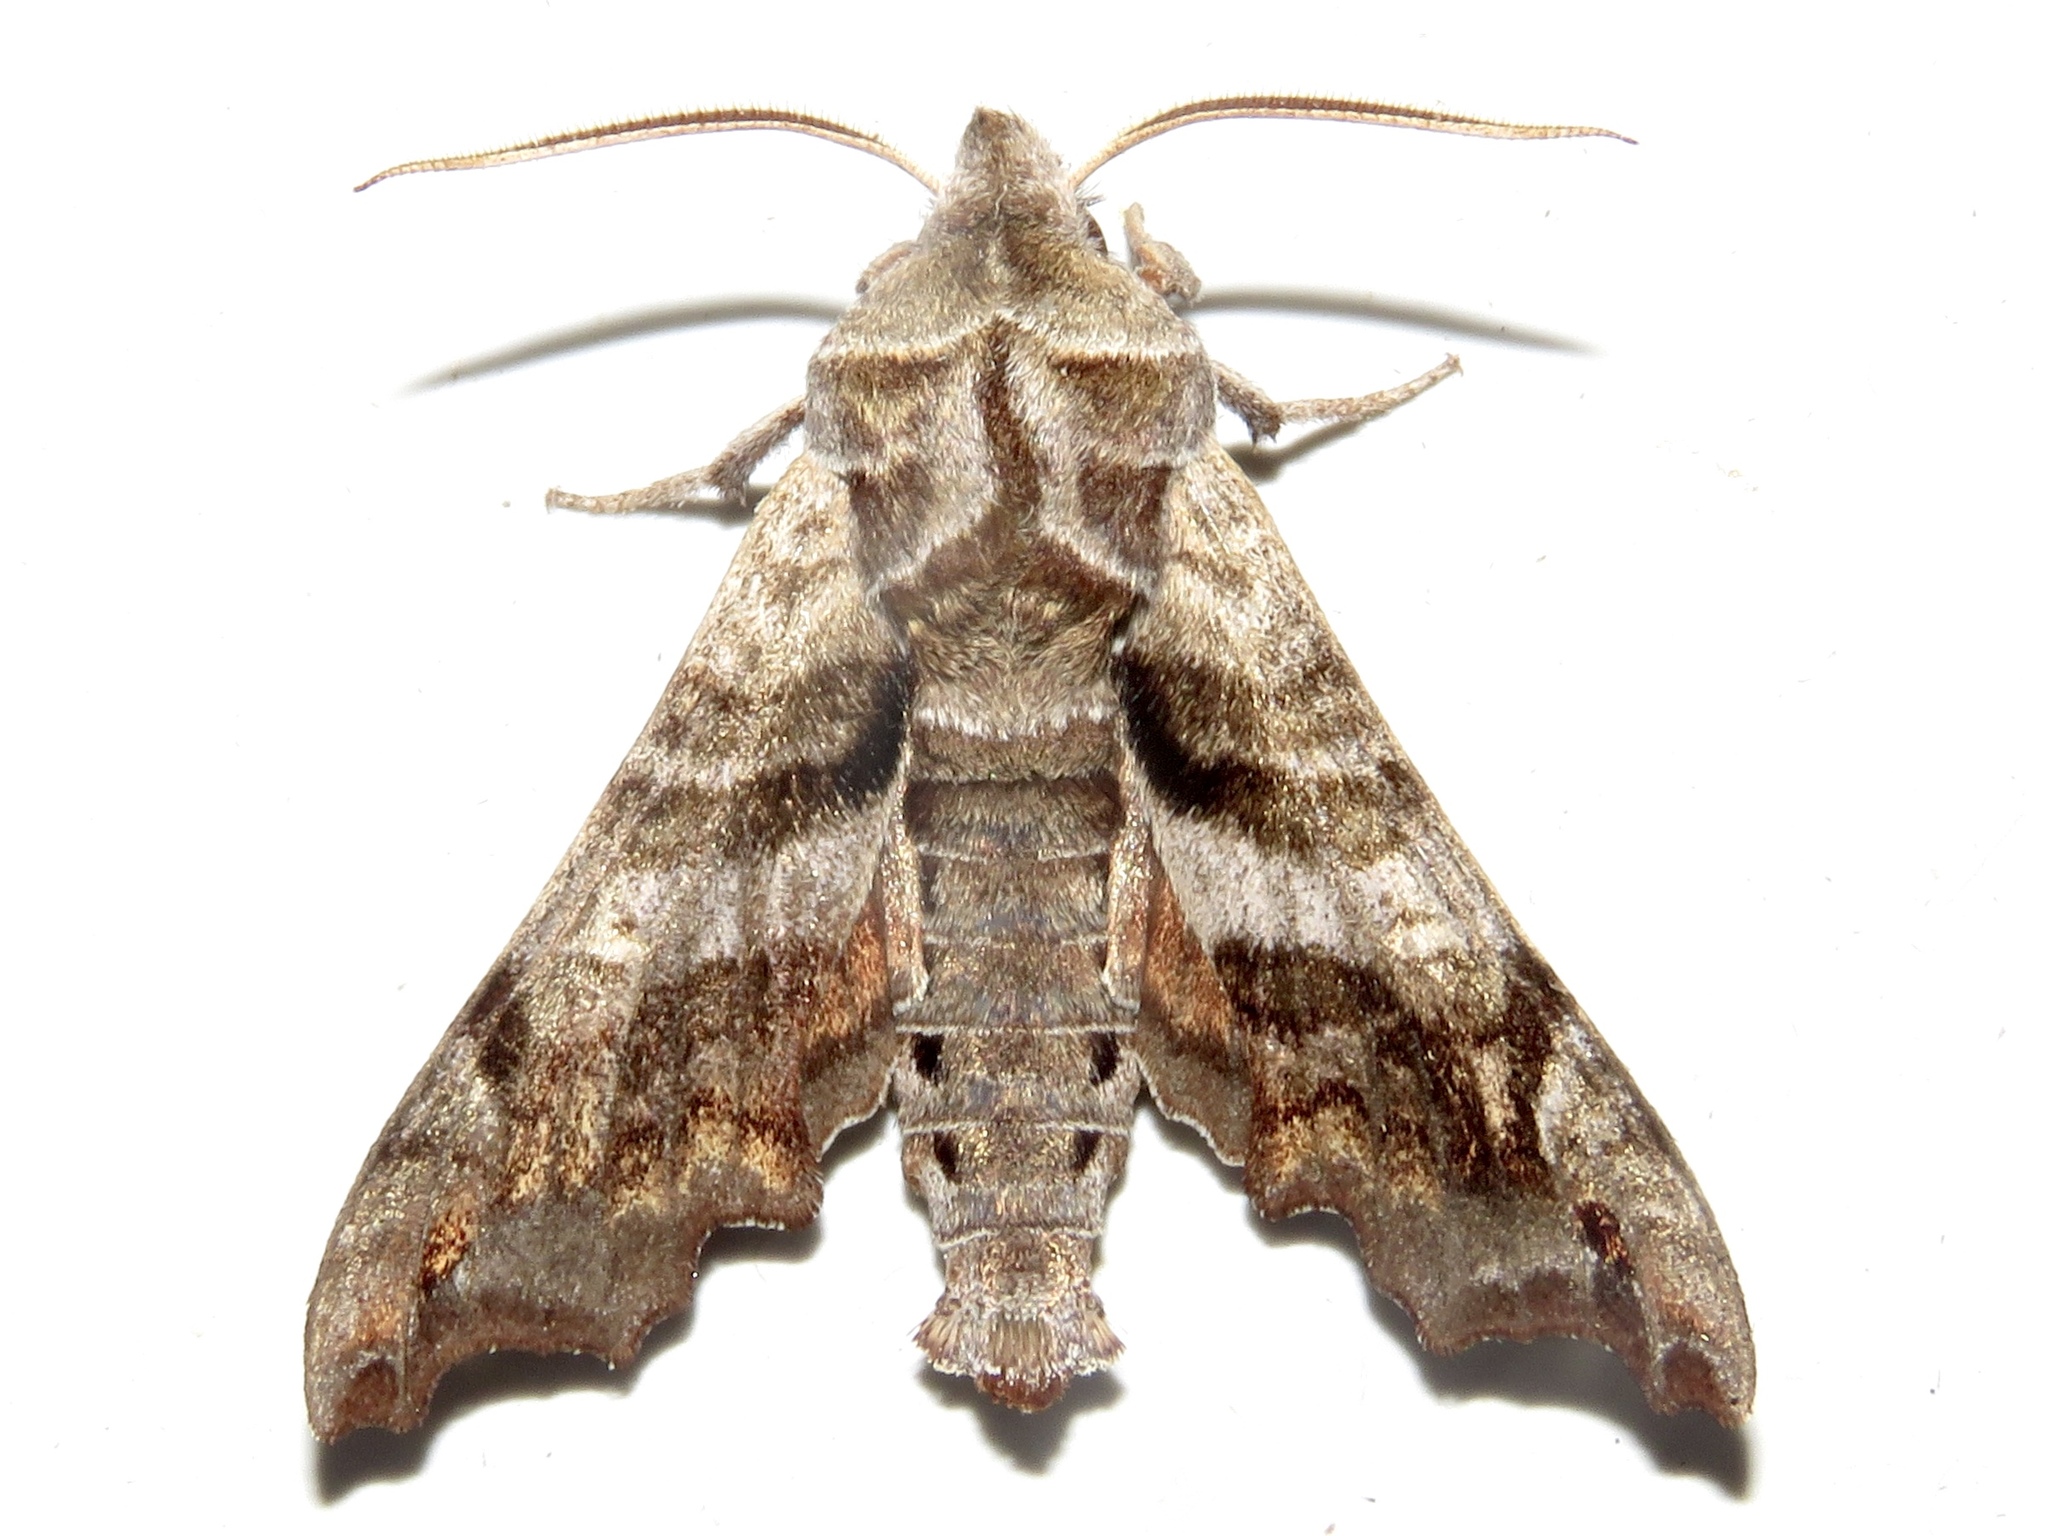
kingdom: Animalia
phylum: Arthropoda
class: Insecta
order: Lepidoptera
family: Sphingidae
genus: Deidamia
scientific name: Deidamia inscriptum
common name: Lettered sphinx
